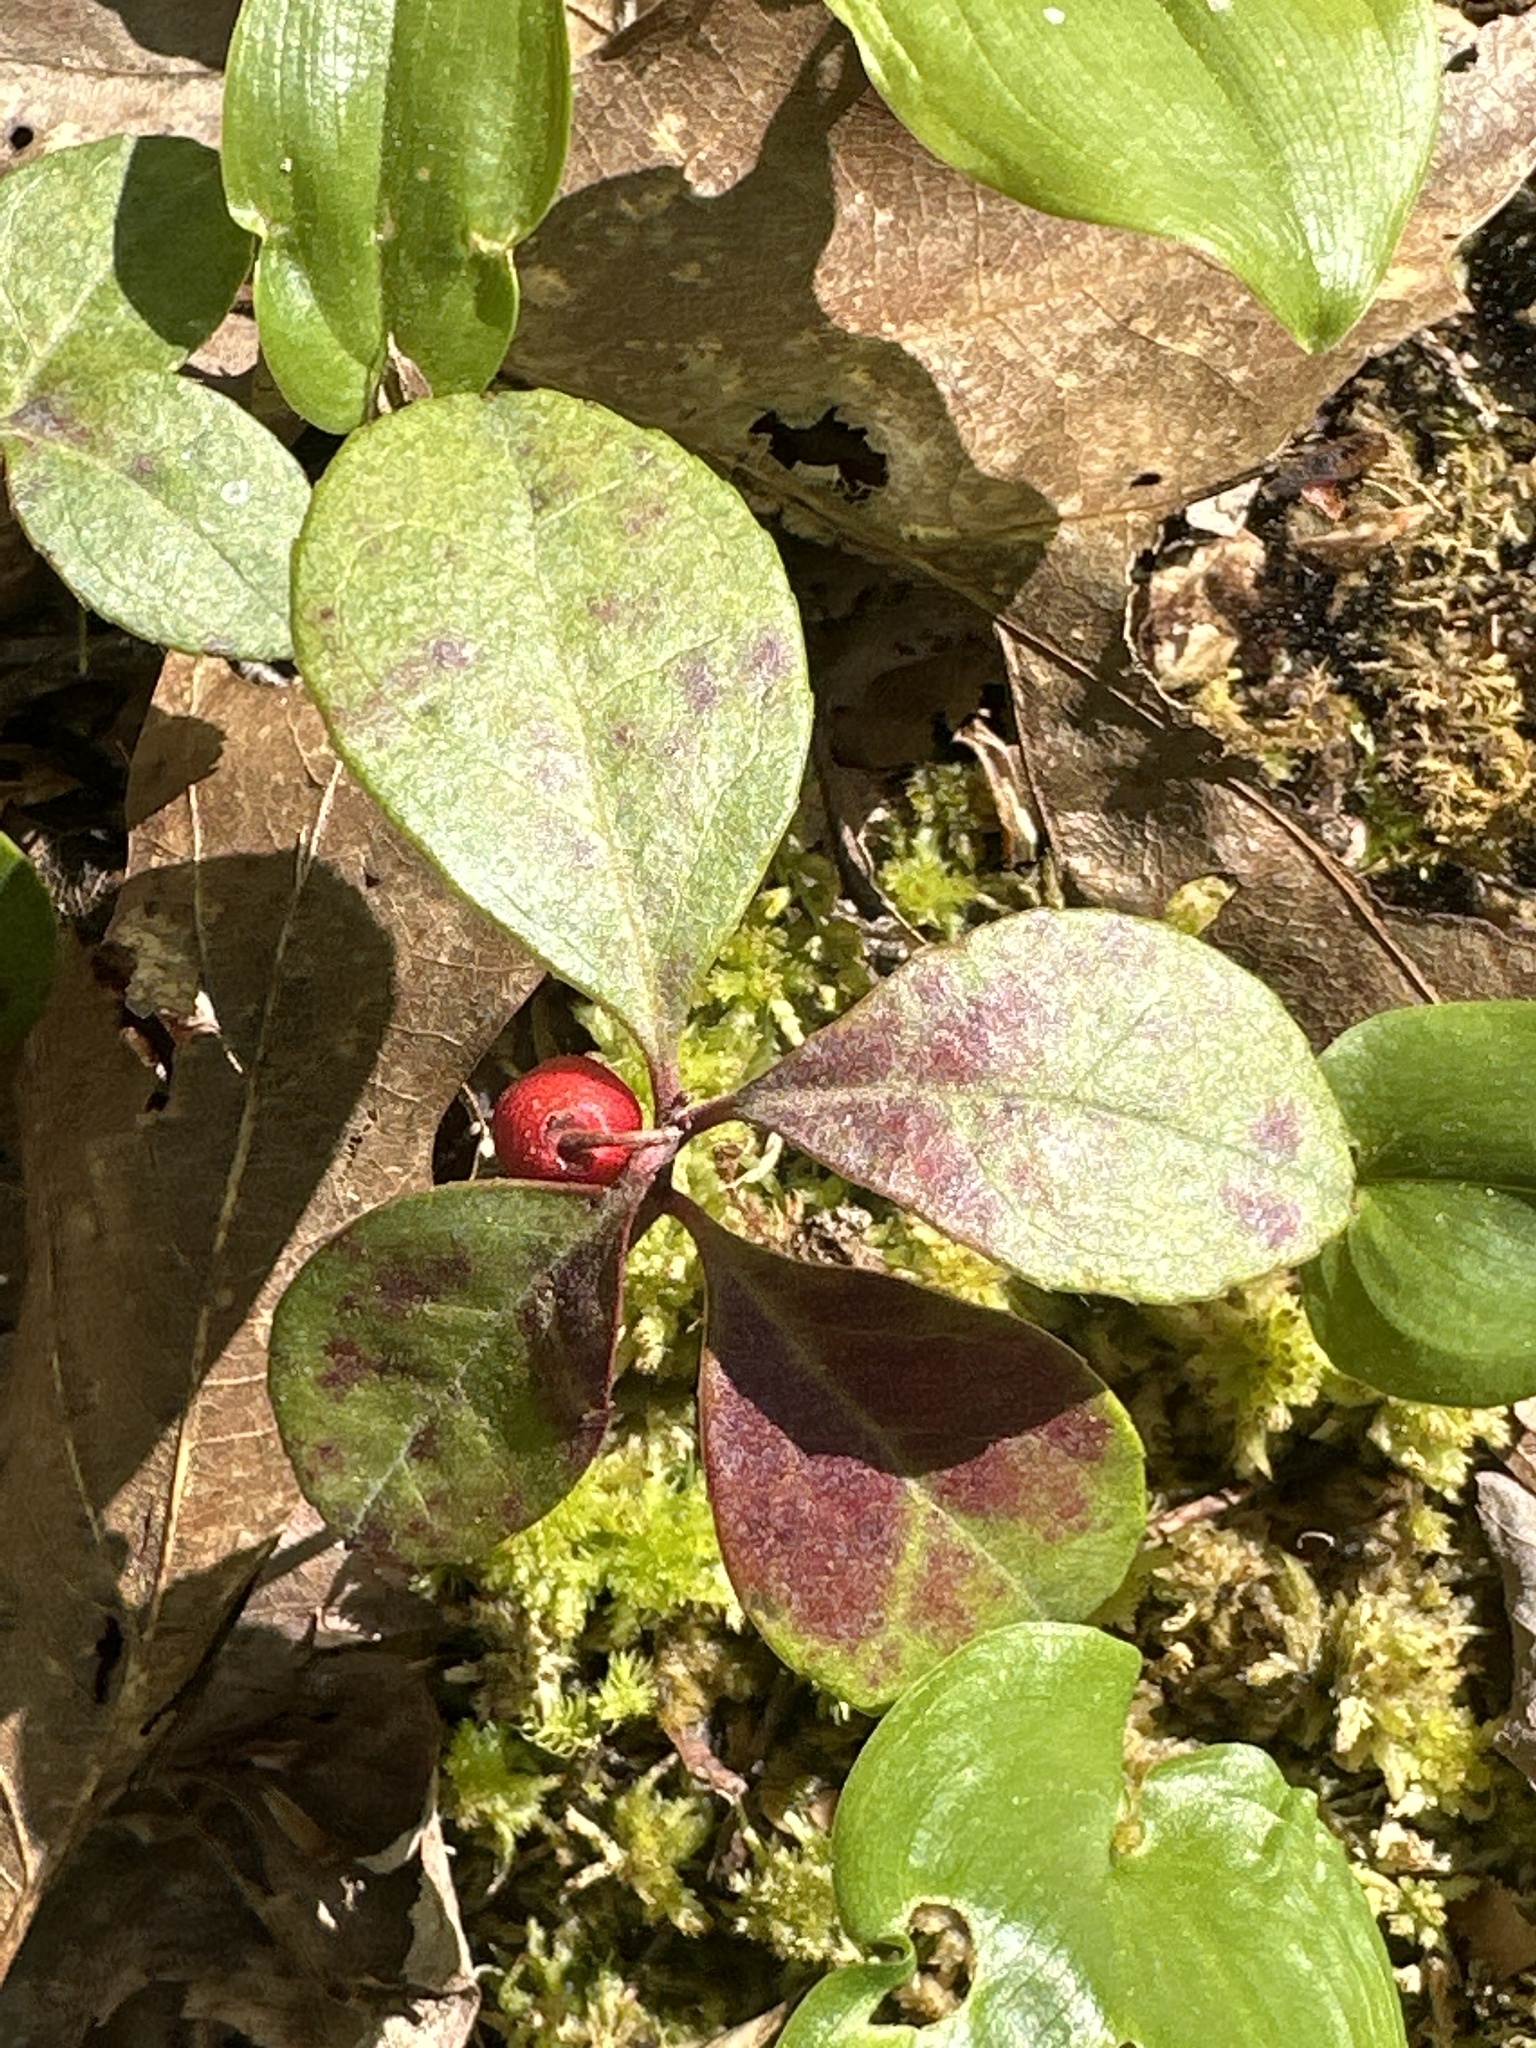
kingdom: Plantae
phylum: Tracheophyta
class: Magnoliopsida
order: Ericales
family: Ericaceae
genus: Gaultheria
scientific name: Gaultheria procumbens
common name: Checkerberry
